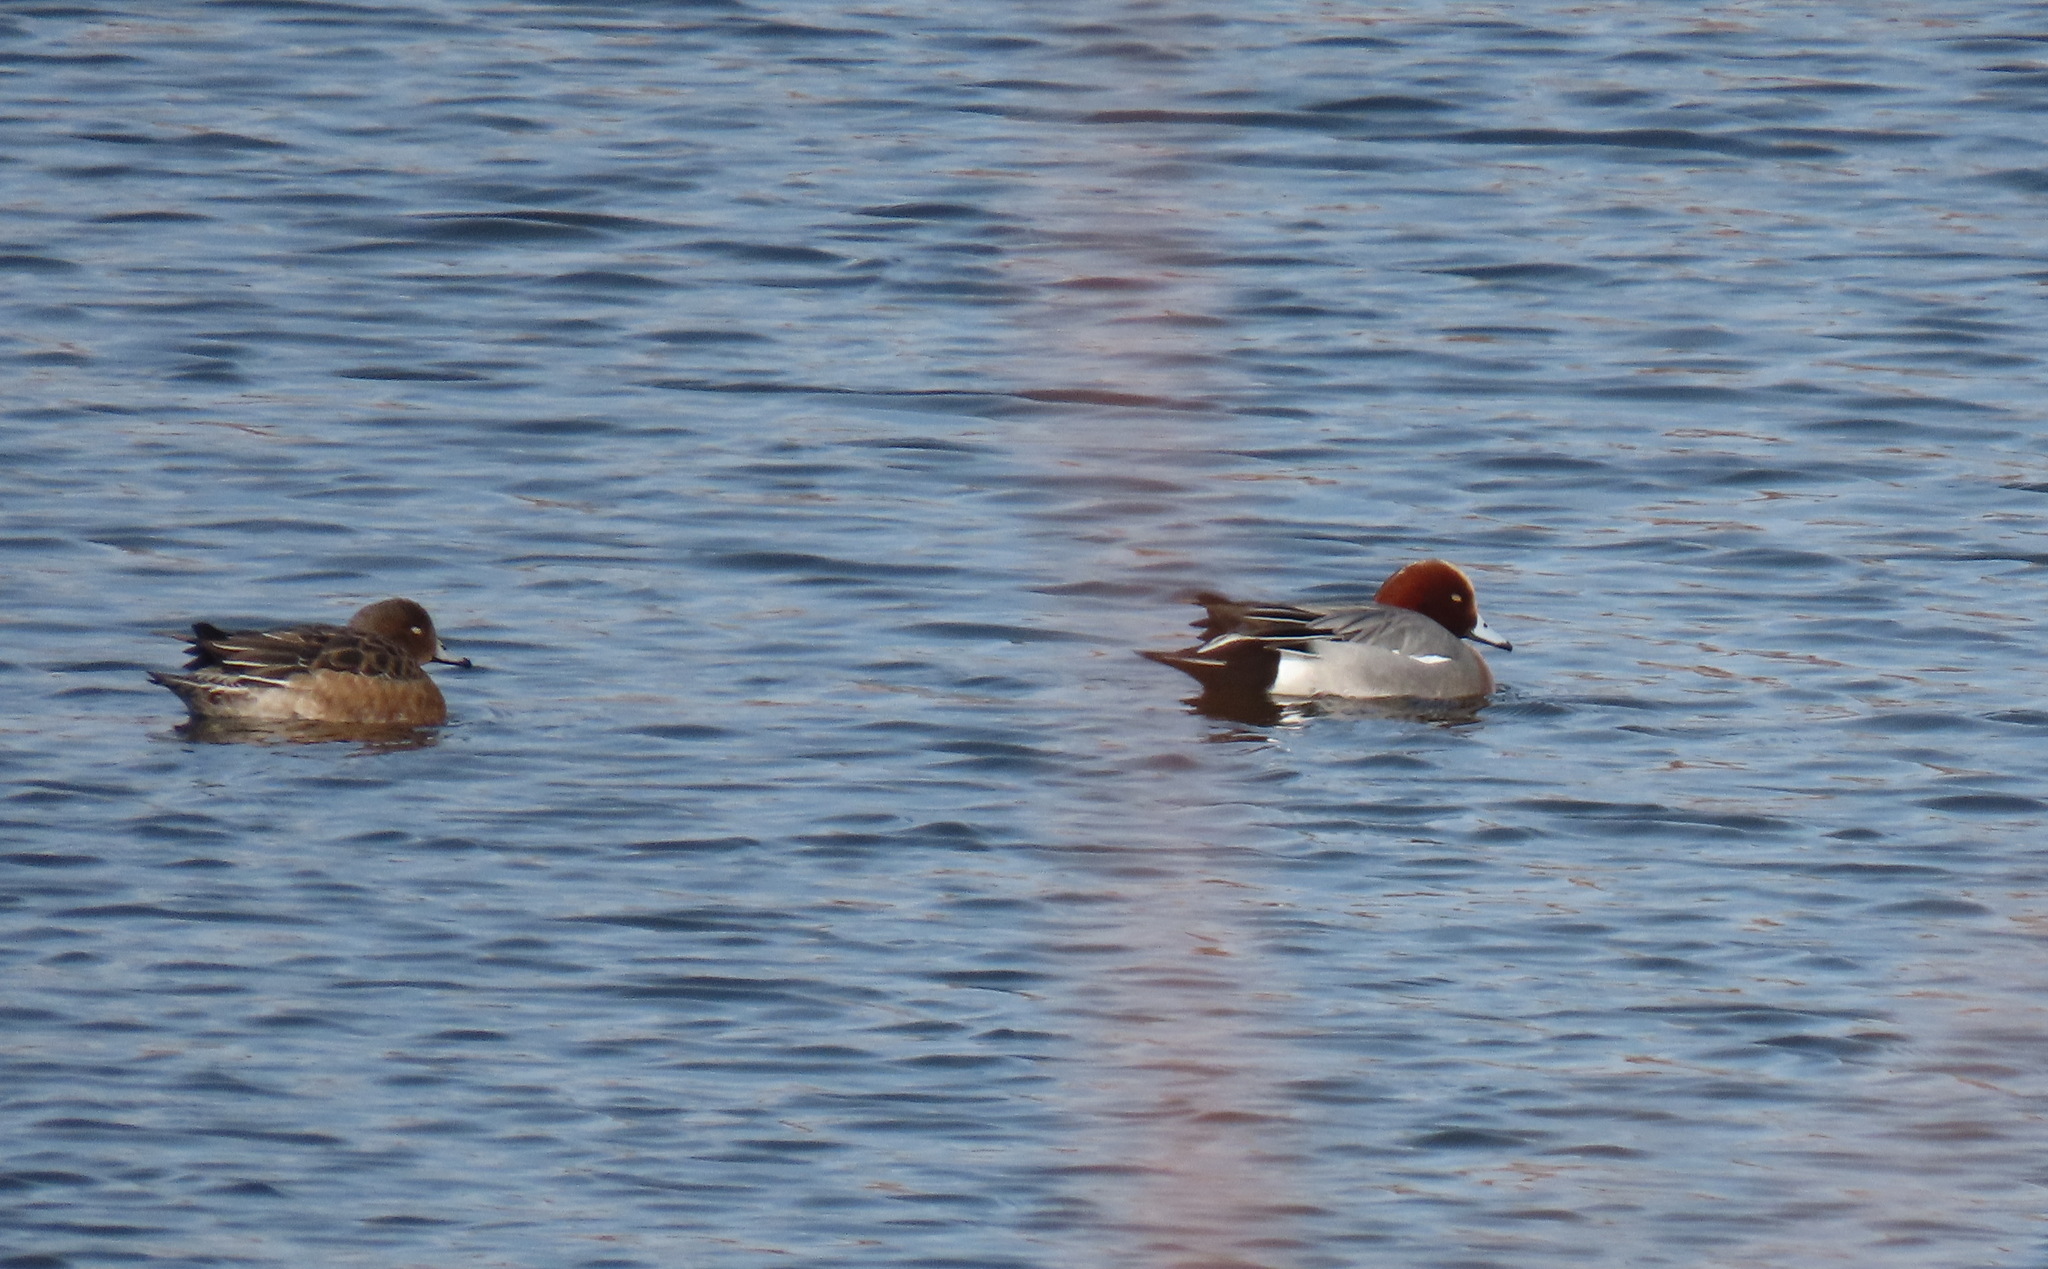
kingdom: Animalia
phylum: Chordata
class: Aves
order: Anseriformes
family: Anatidae
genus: Mareca
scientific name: Mareca penelope
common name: Eurasian wigeon
